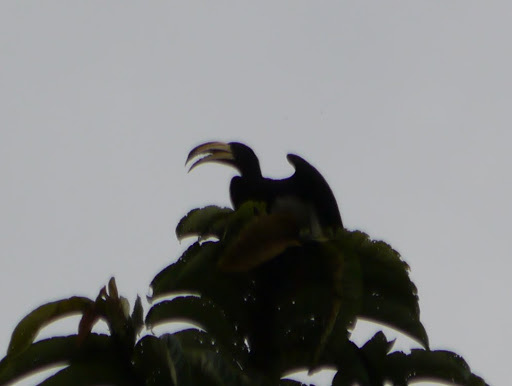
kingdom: Animalia
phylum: Chordata
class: Aves
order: Bucerotiformes
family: Bucerotidae
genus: Lophoceros
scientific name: Lophoceros fasciatus
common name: African pied hornbill
